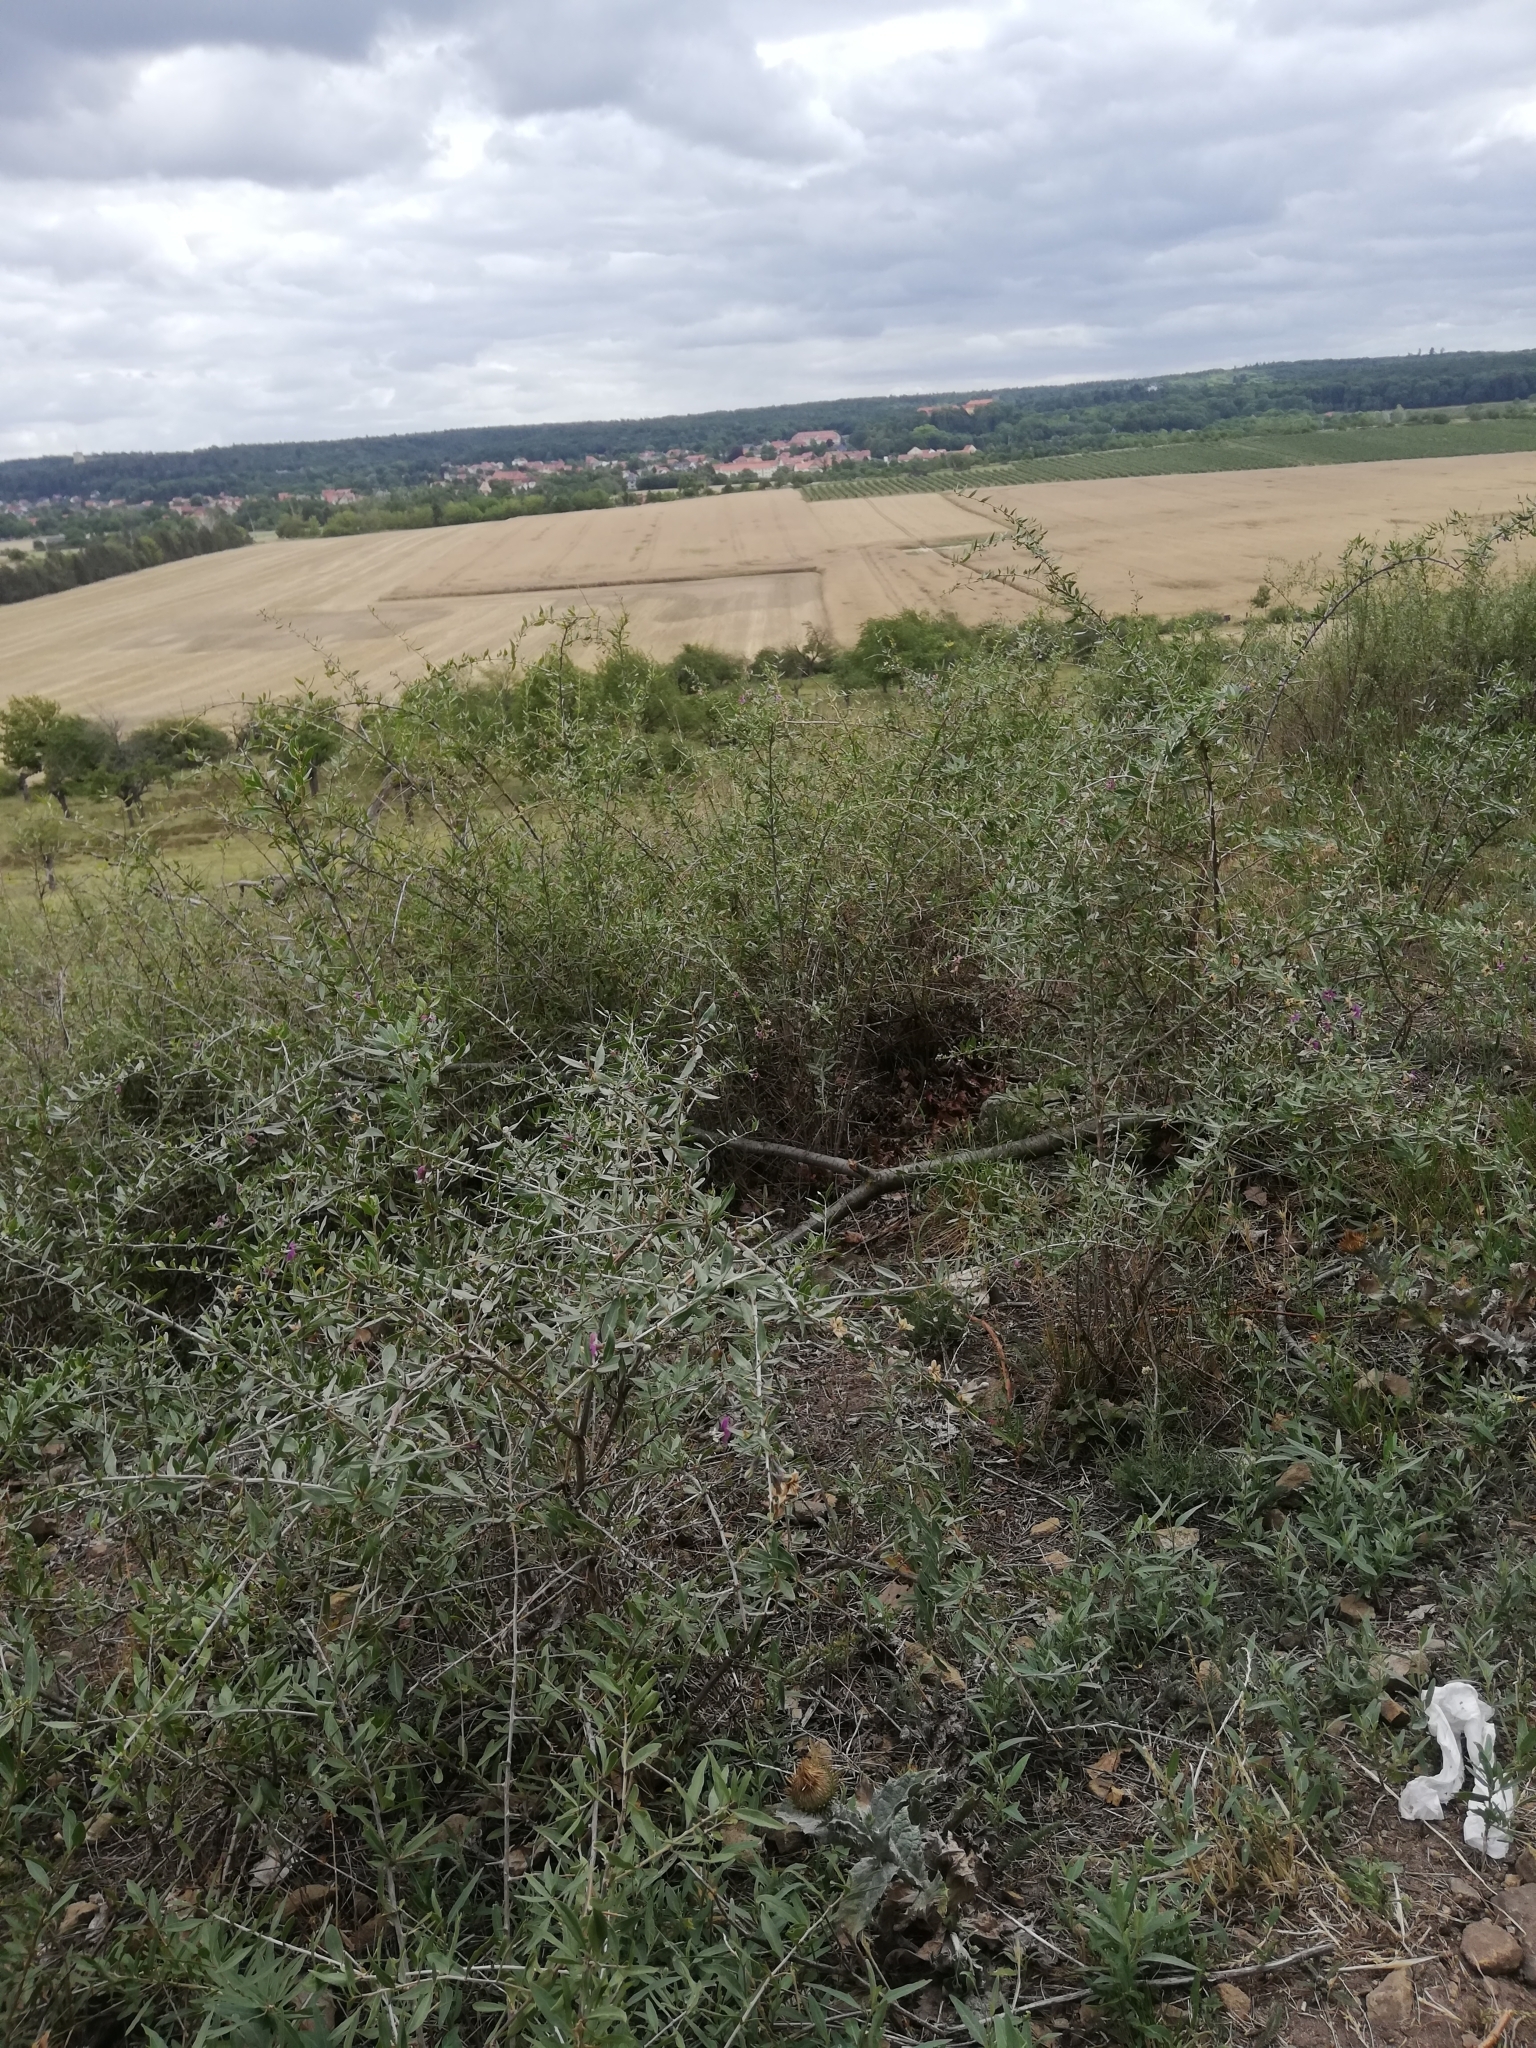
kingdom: Plantae
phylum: Tracheophyta
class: Magnoliopsida
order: Solanales
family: Solanaceae
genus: Lycium
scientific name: Lycium barbarum
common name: Duke of argyll's teaplant
